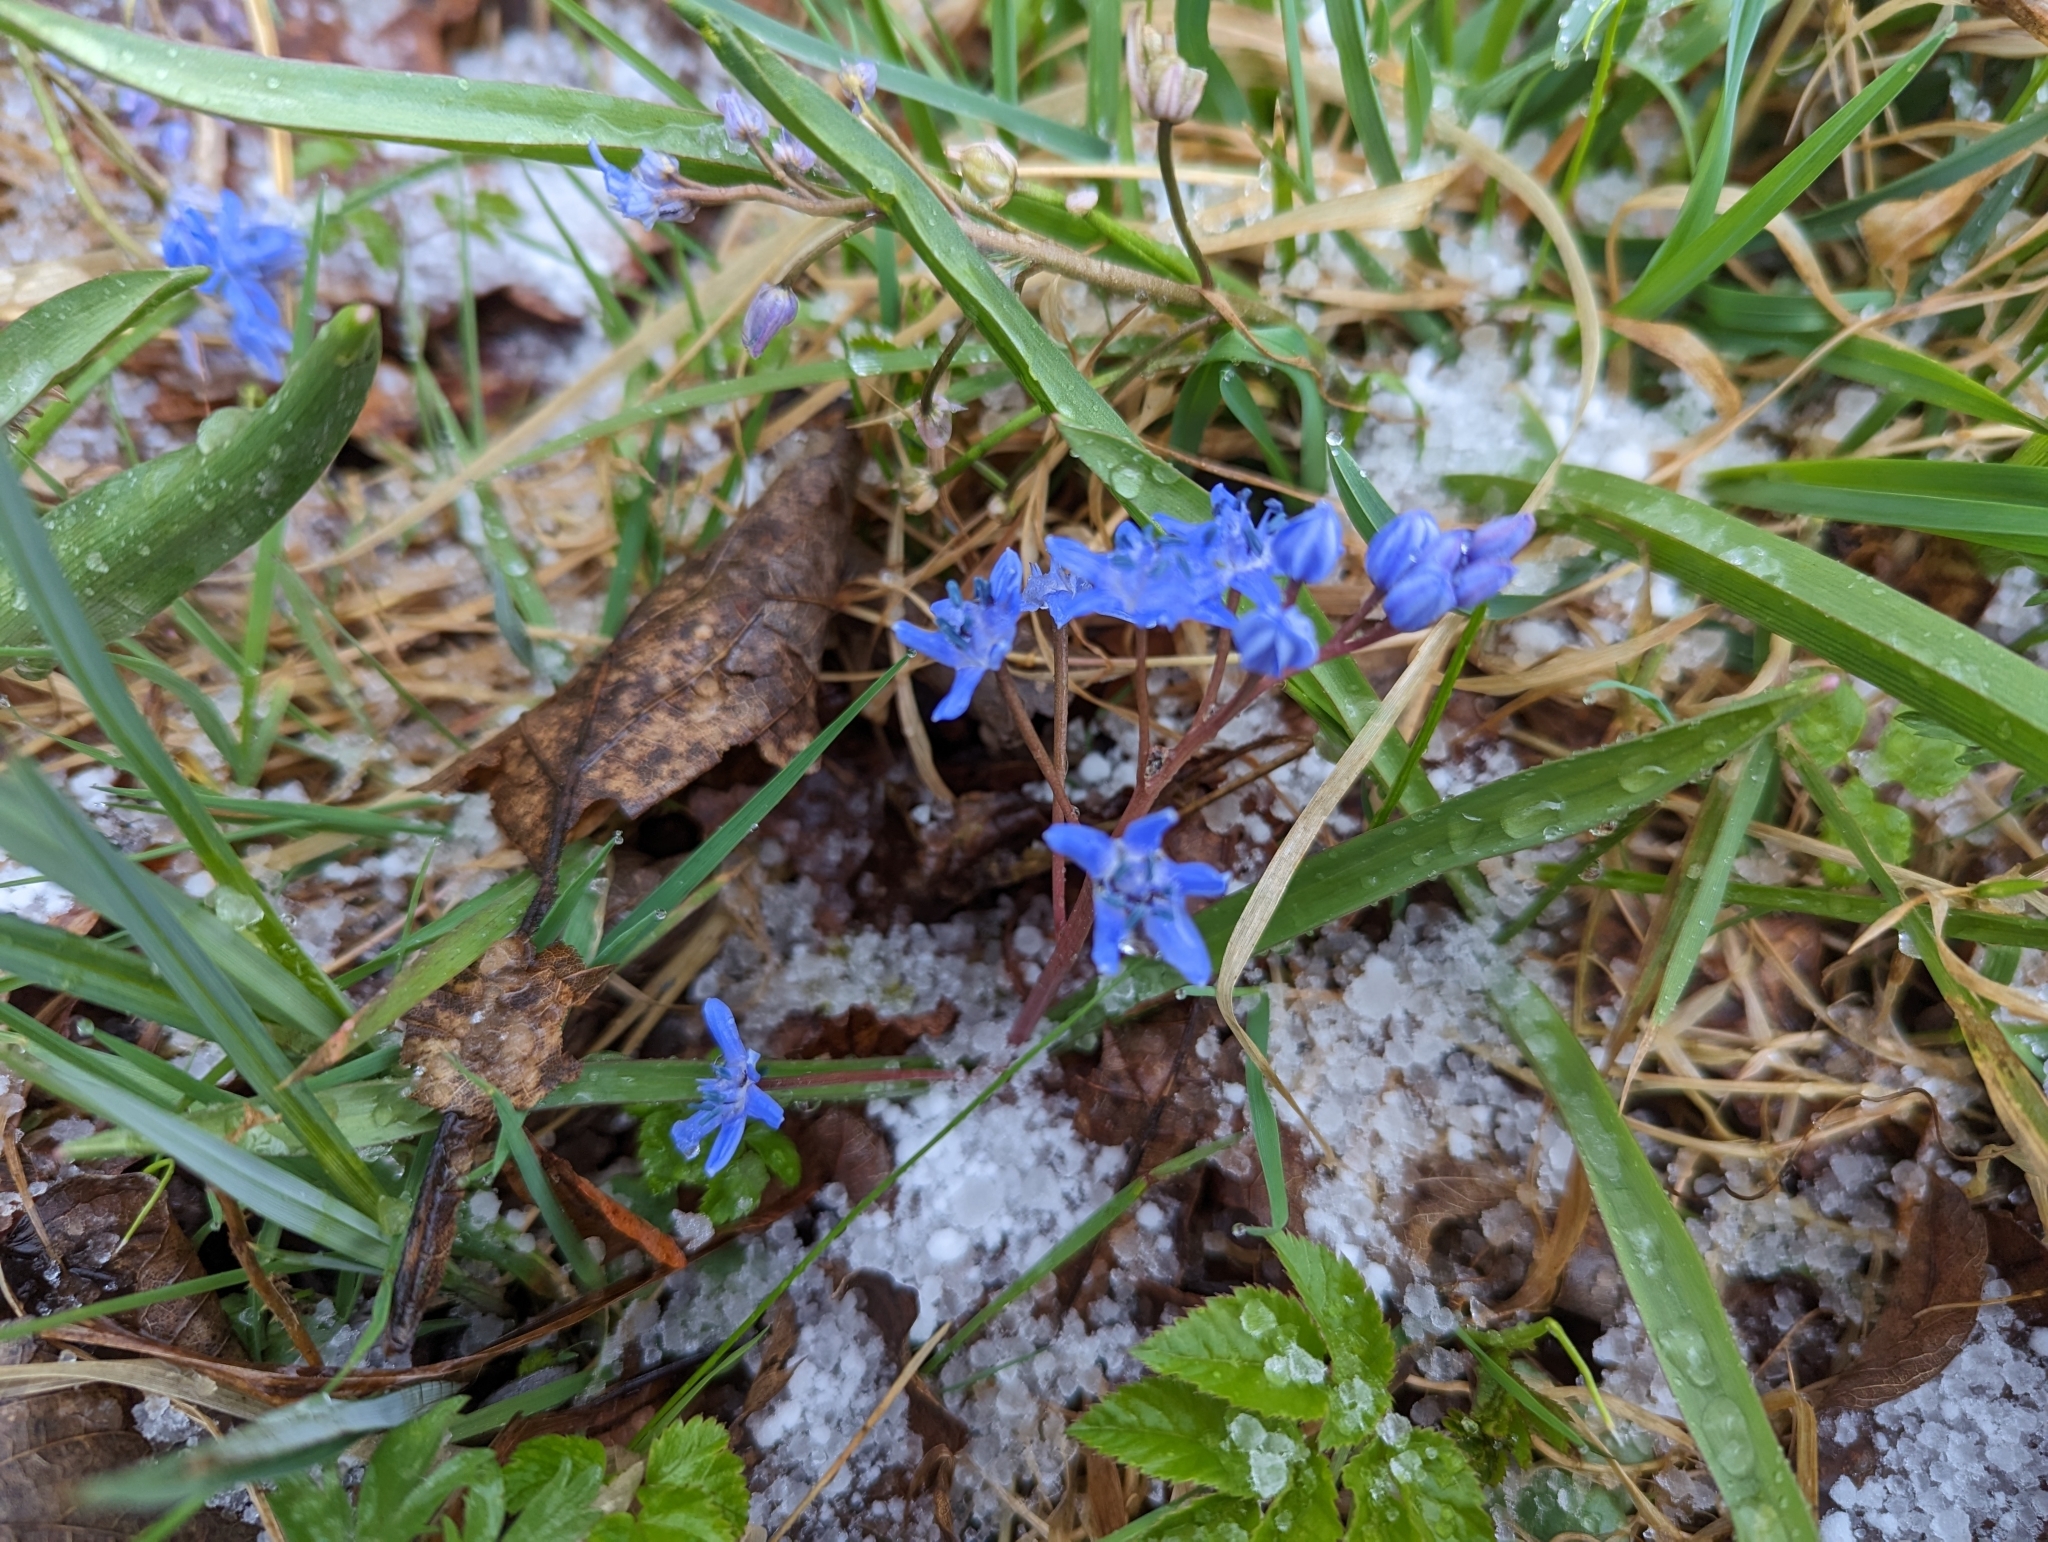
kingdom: Plantae
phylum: Tracheophyta
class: Liliopsida
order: Asparagales
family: Asparagaceae
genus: Scilla
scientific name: Scilla bifolia
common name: Alpine squill
